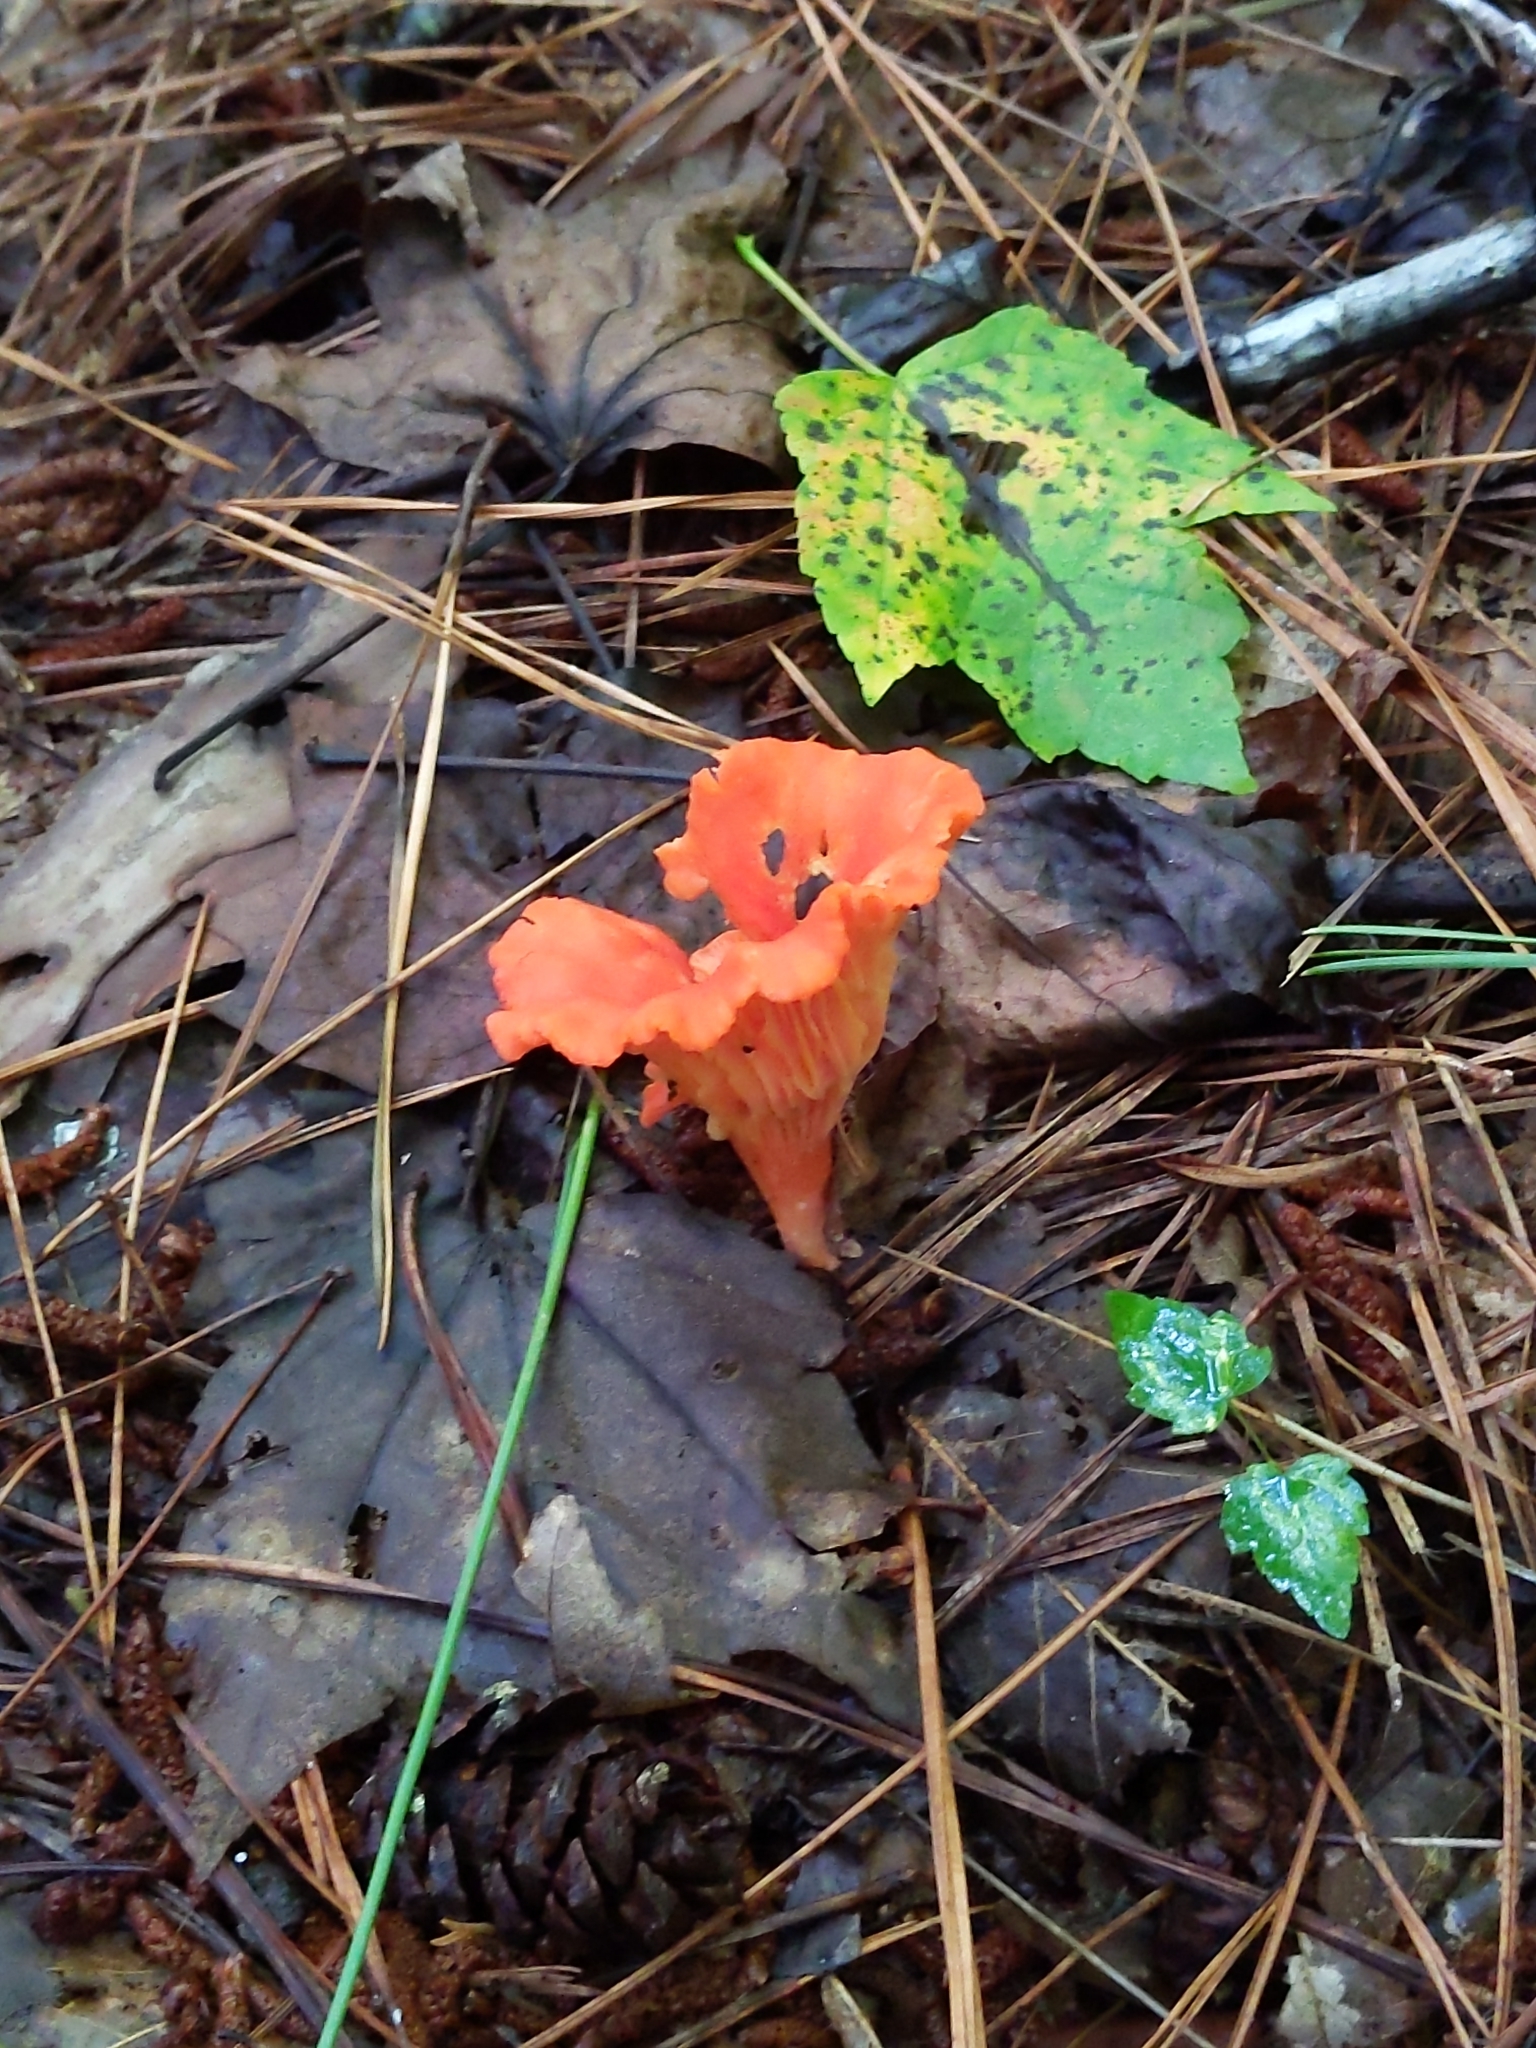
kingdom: Fungi
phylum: Basidiomycota
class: Agaricomycetes
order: Cantharellales
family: Hydnaceae
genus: Cantharellus
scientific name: Cantharellus cinnabarinus
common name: Cinnabar chanterelle
